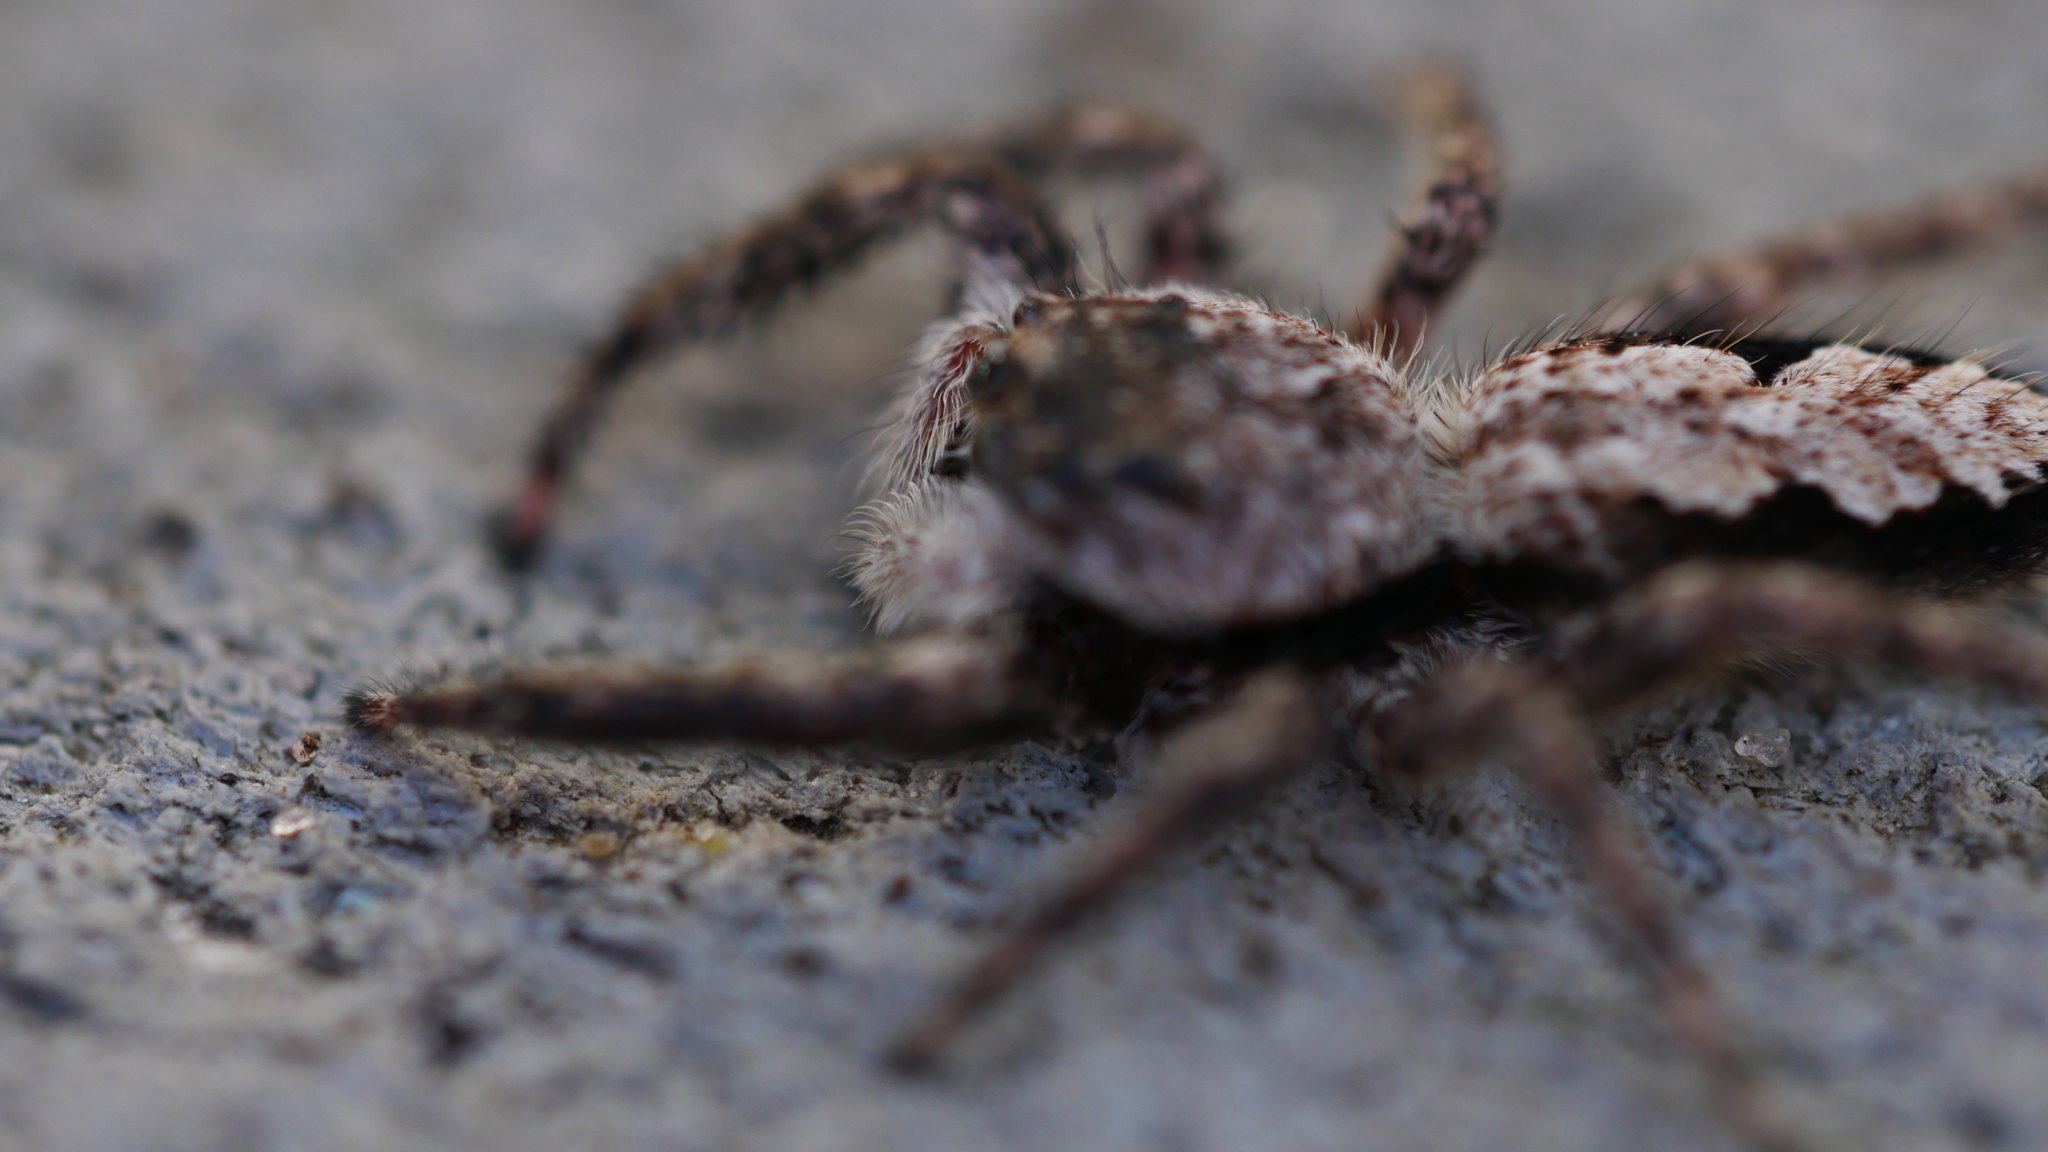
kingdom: Animalia
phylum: Arthropoda
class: Arachnida
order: Araneae
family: Salticidae
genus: Platycryptus
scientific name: Platycryptus undatus
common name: Tan jumping spider
